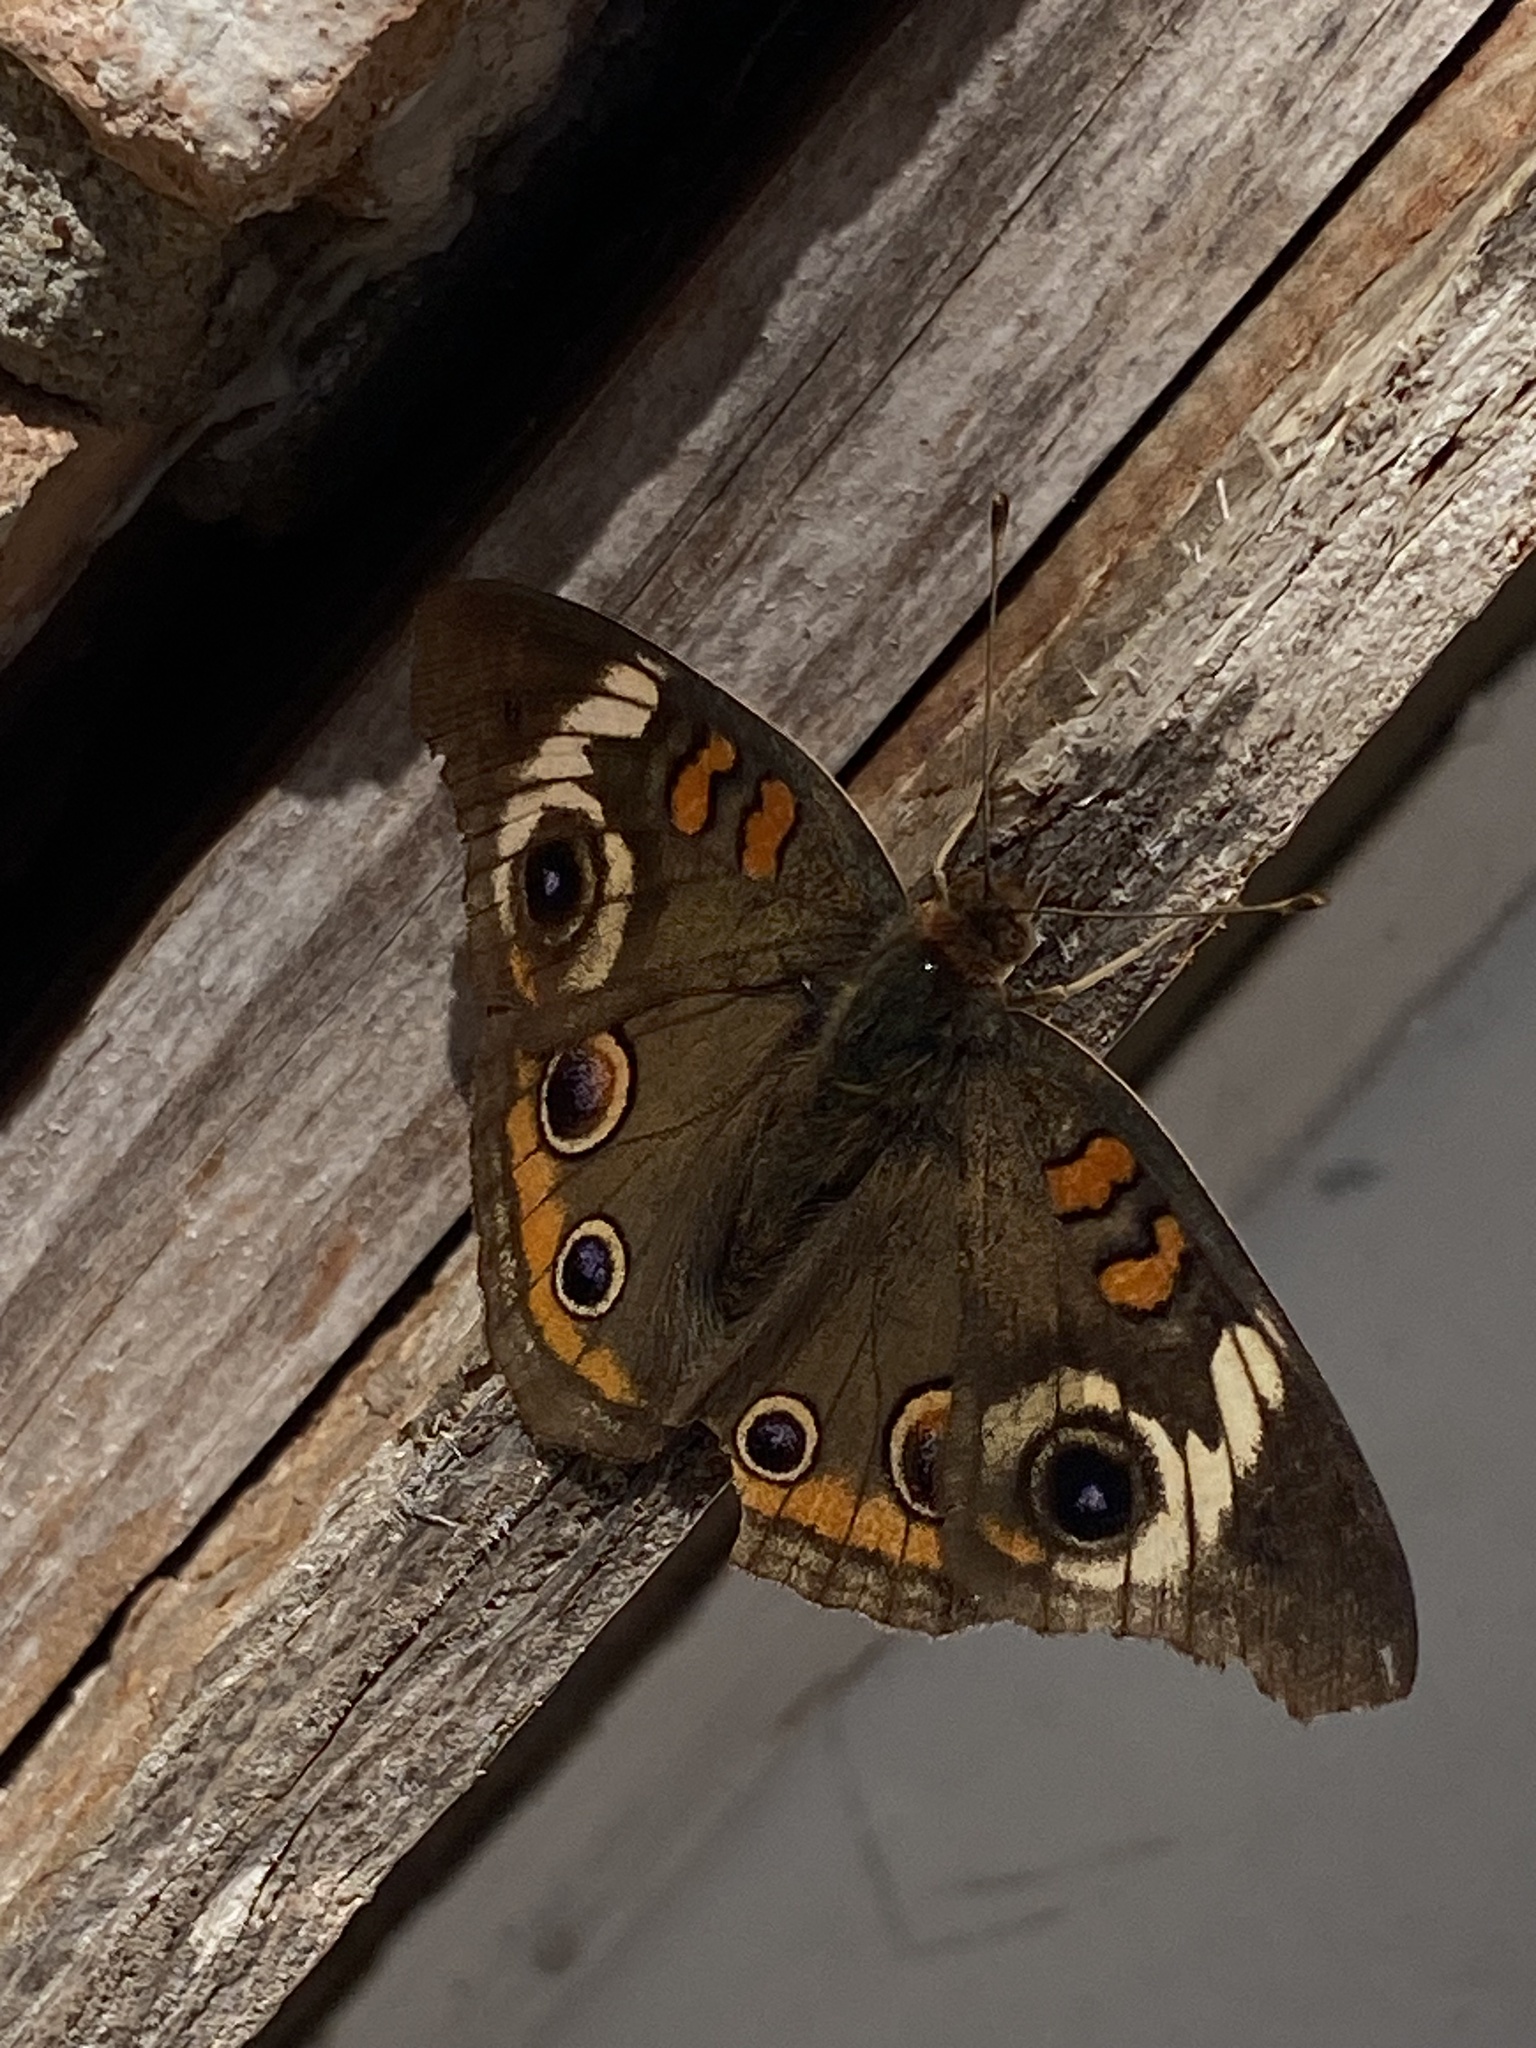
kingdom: Animalia
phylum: Arthropoda
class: Insecta
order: Lepidoptera
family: Nymphalidae
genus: Junonia
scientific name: Junonia coenia
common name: Common buckeye
